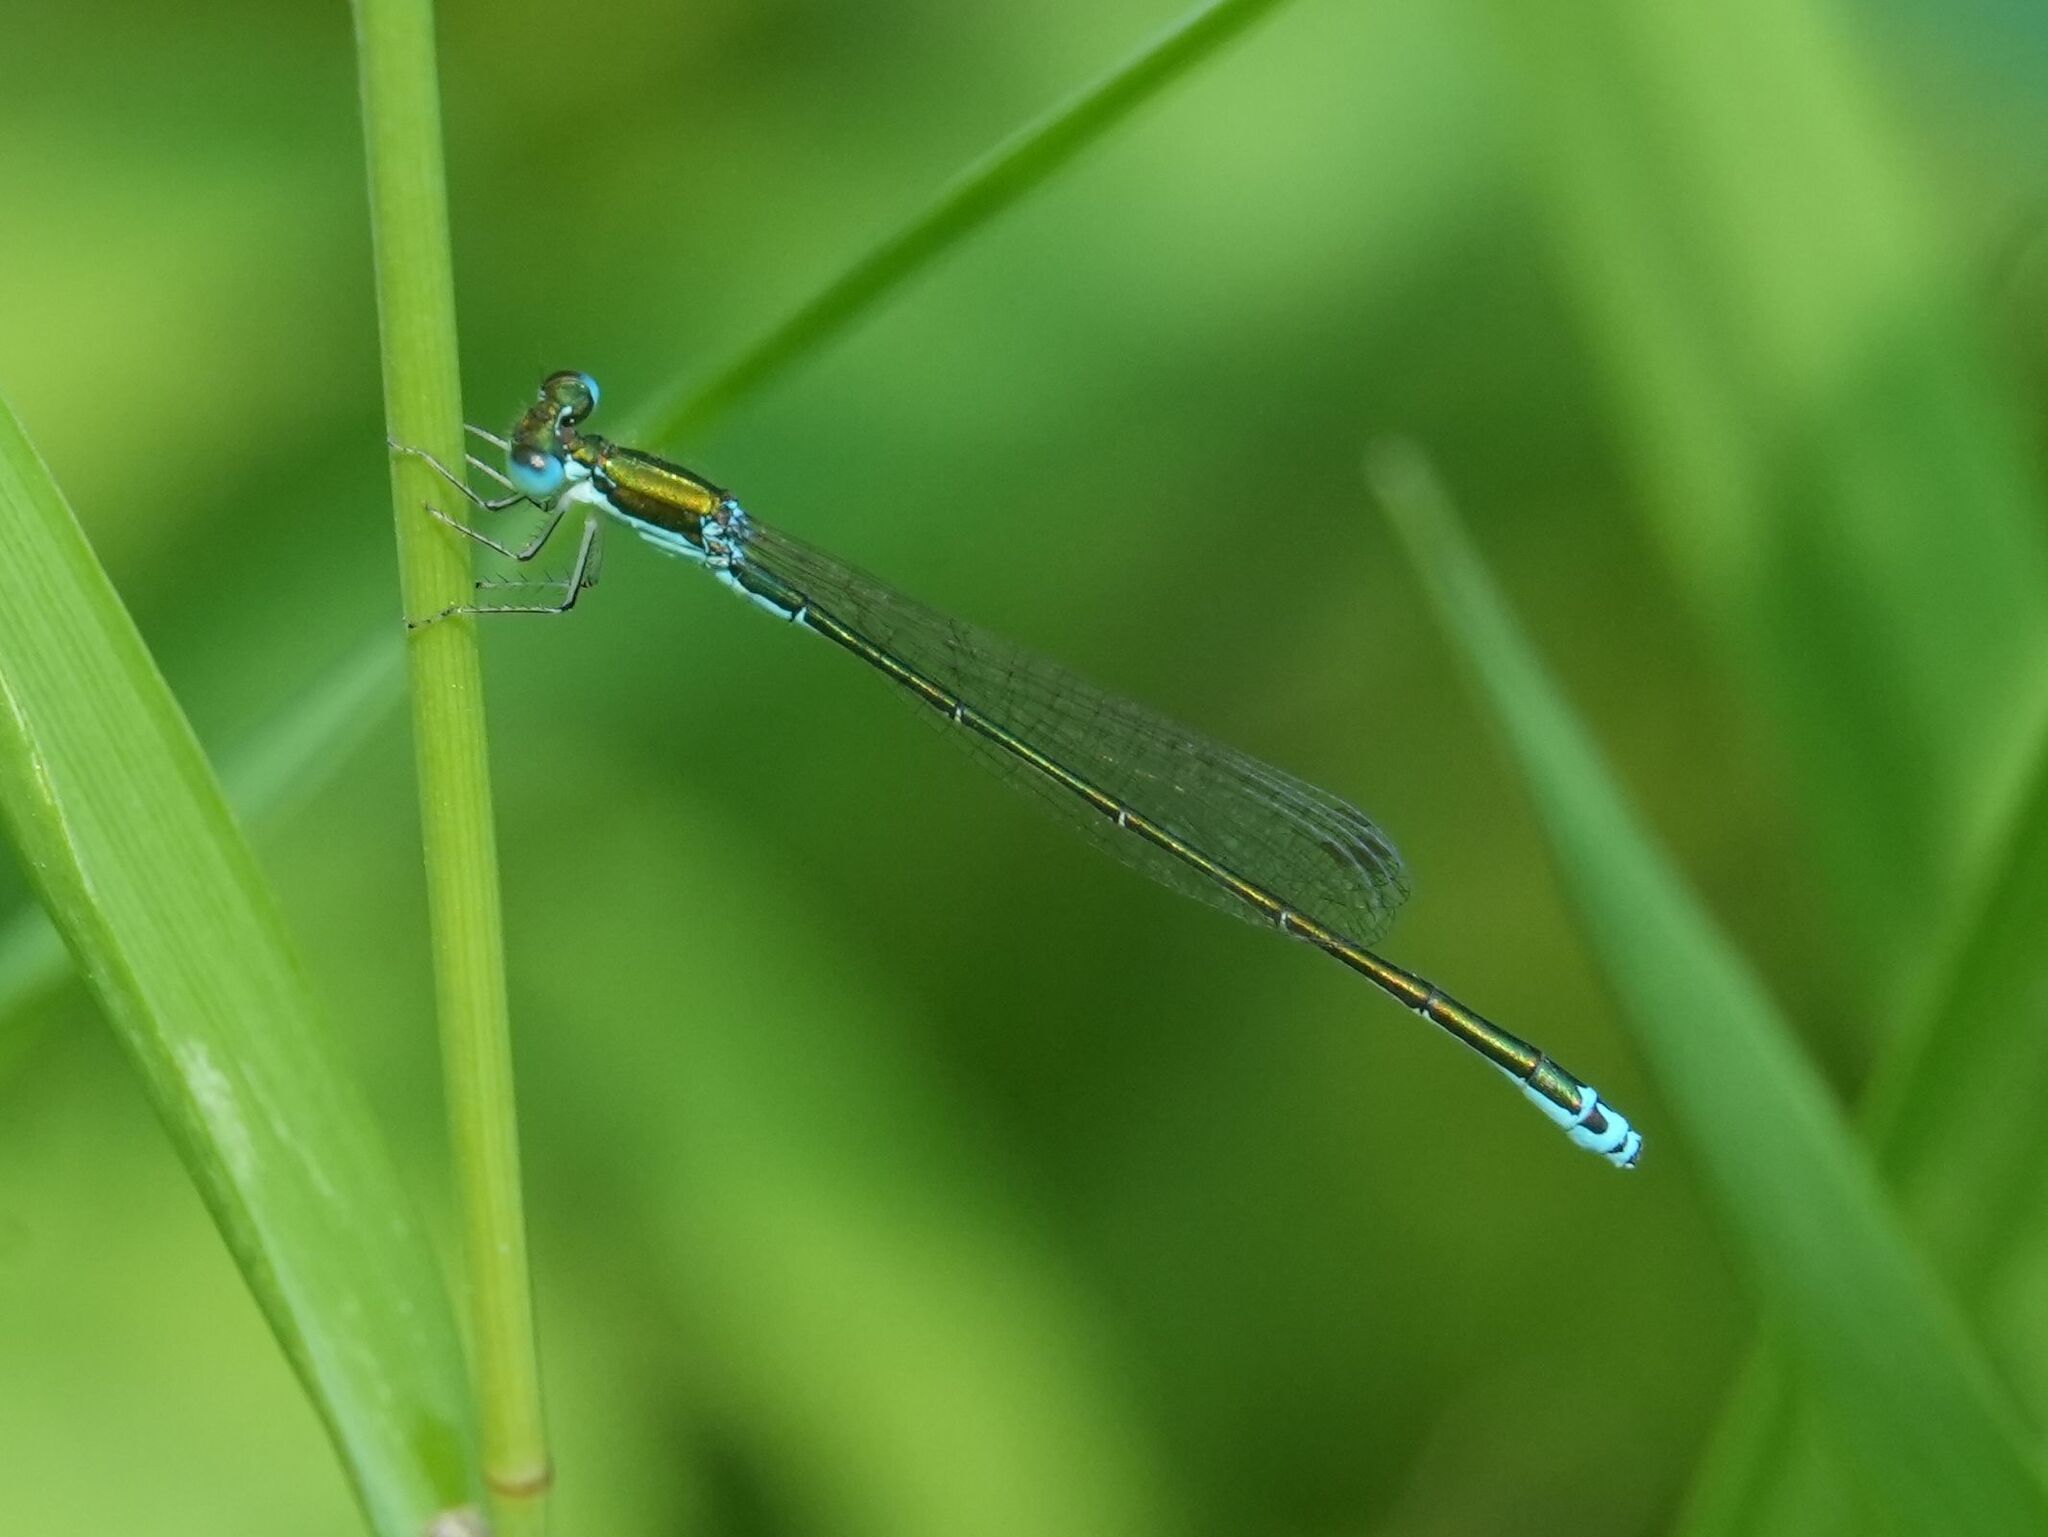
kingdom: Animalia
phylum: Arthropoda
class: Insecta
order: Odonata
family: Coenagrionidae
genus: Nehalennia
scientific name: Nehalennia irene
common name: Sedge sprite
